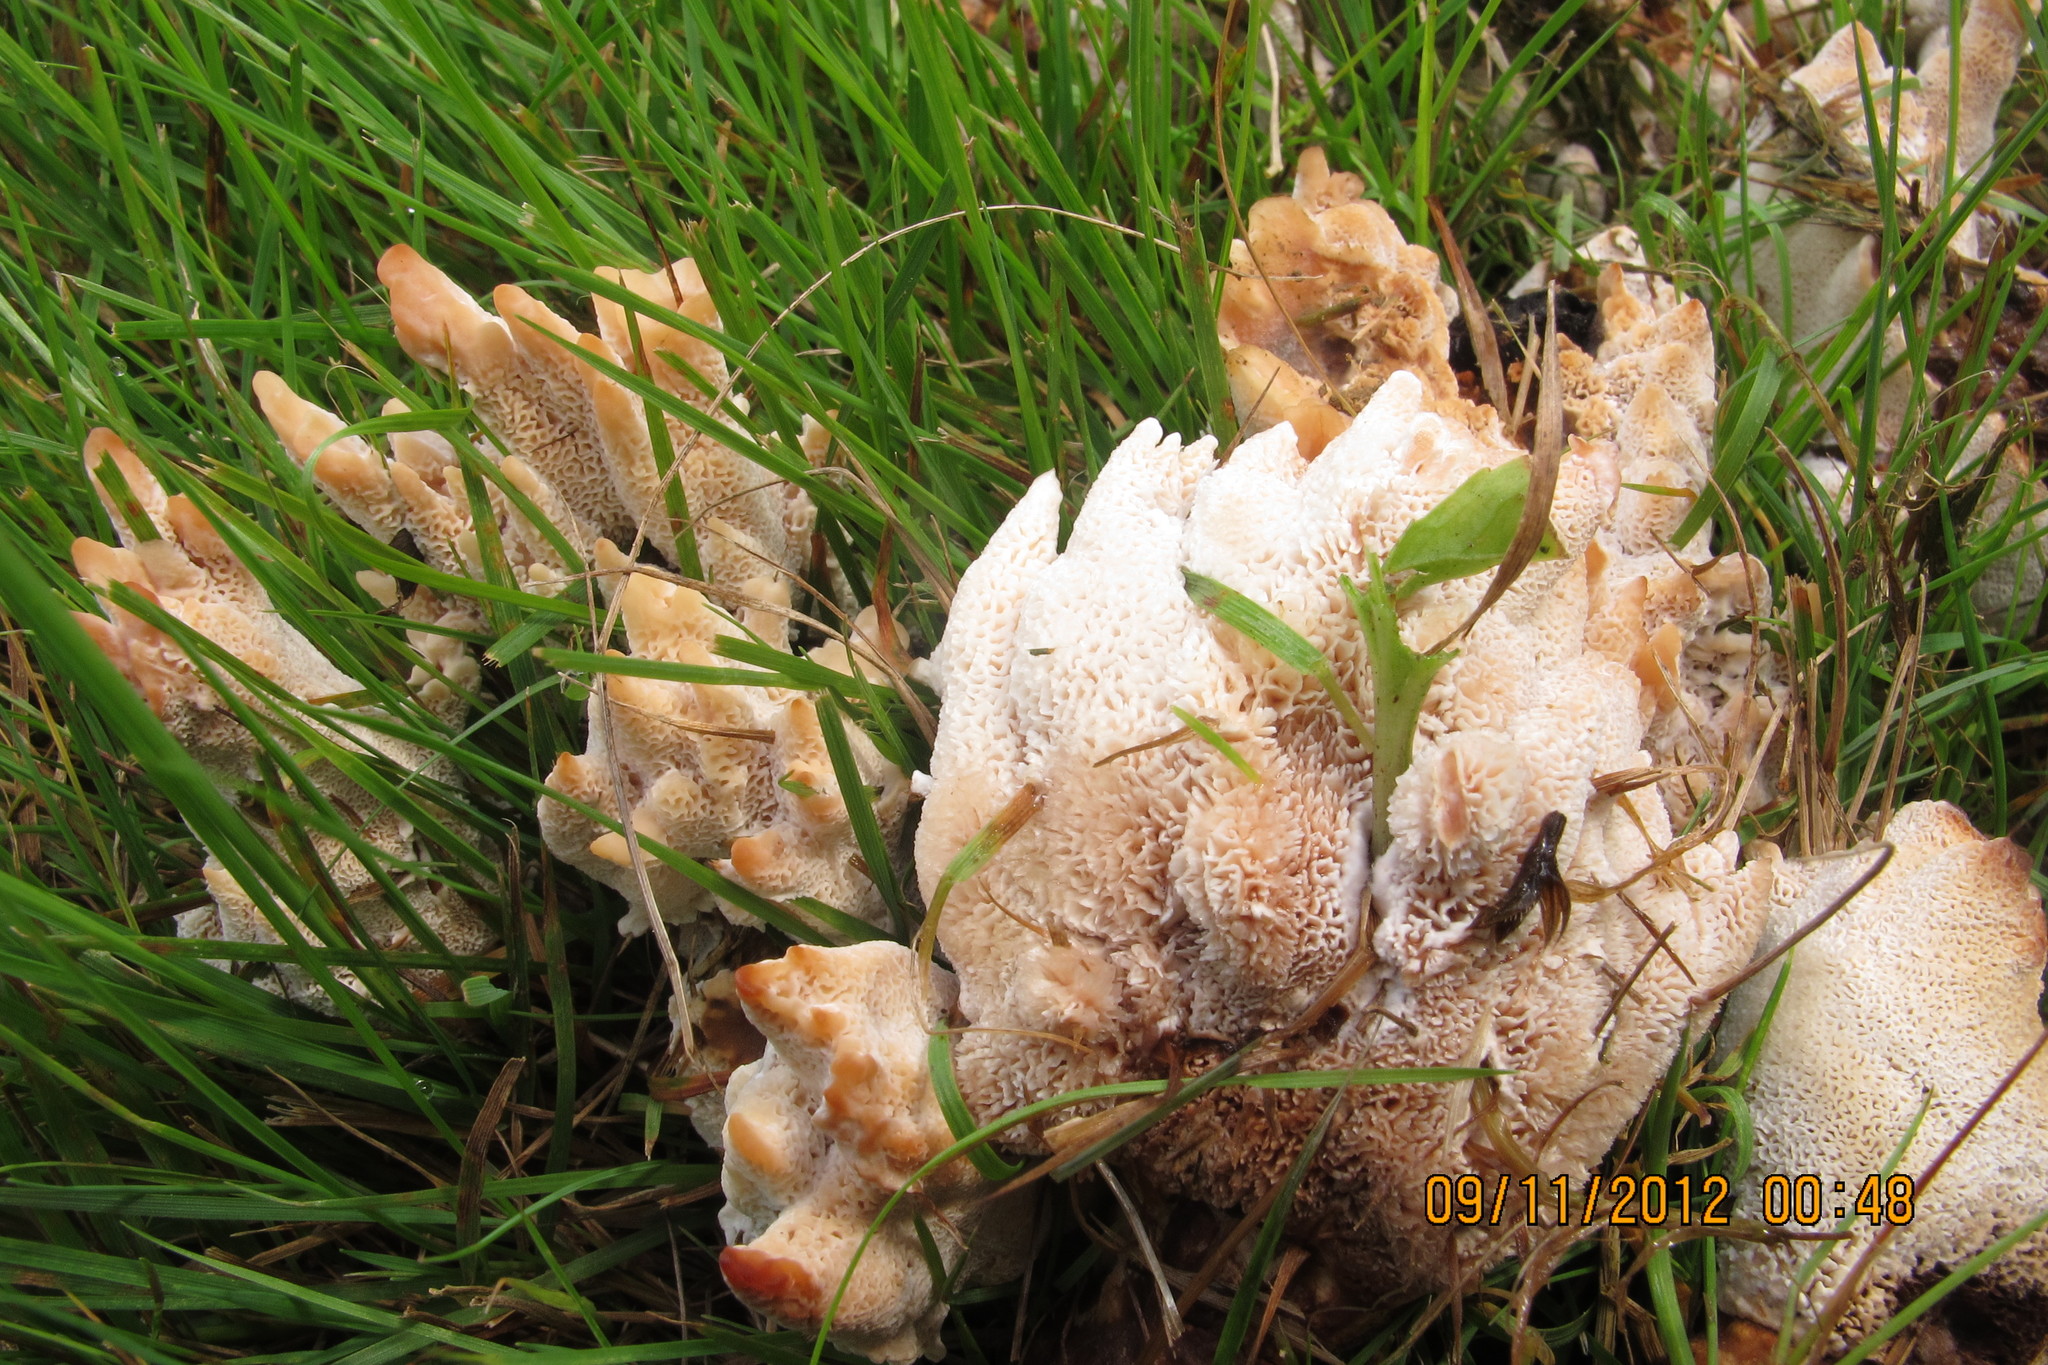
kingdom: Fungi
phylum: Basidiomycota
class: Agaricomycetes
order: Polyporales
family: Podoscyphaceae
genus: Abortiporus
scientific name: Abortiporus biennis
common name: Blushing rosette
